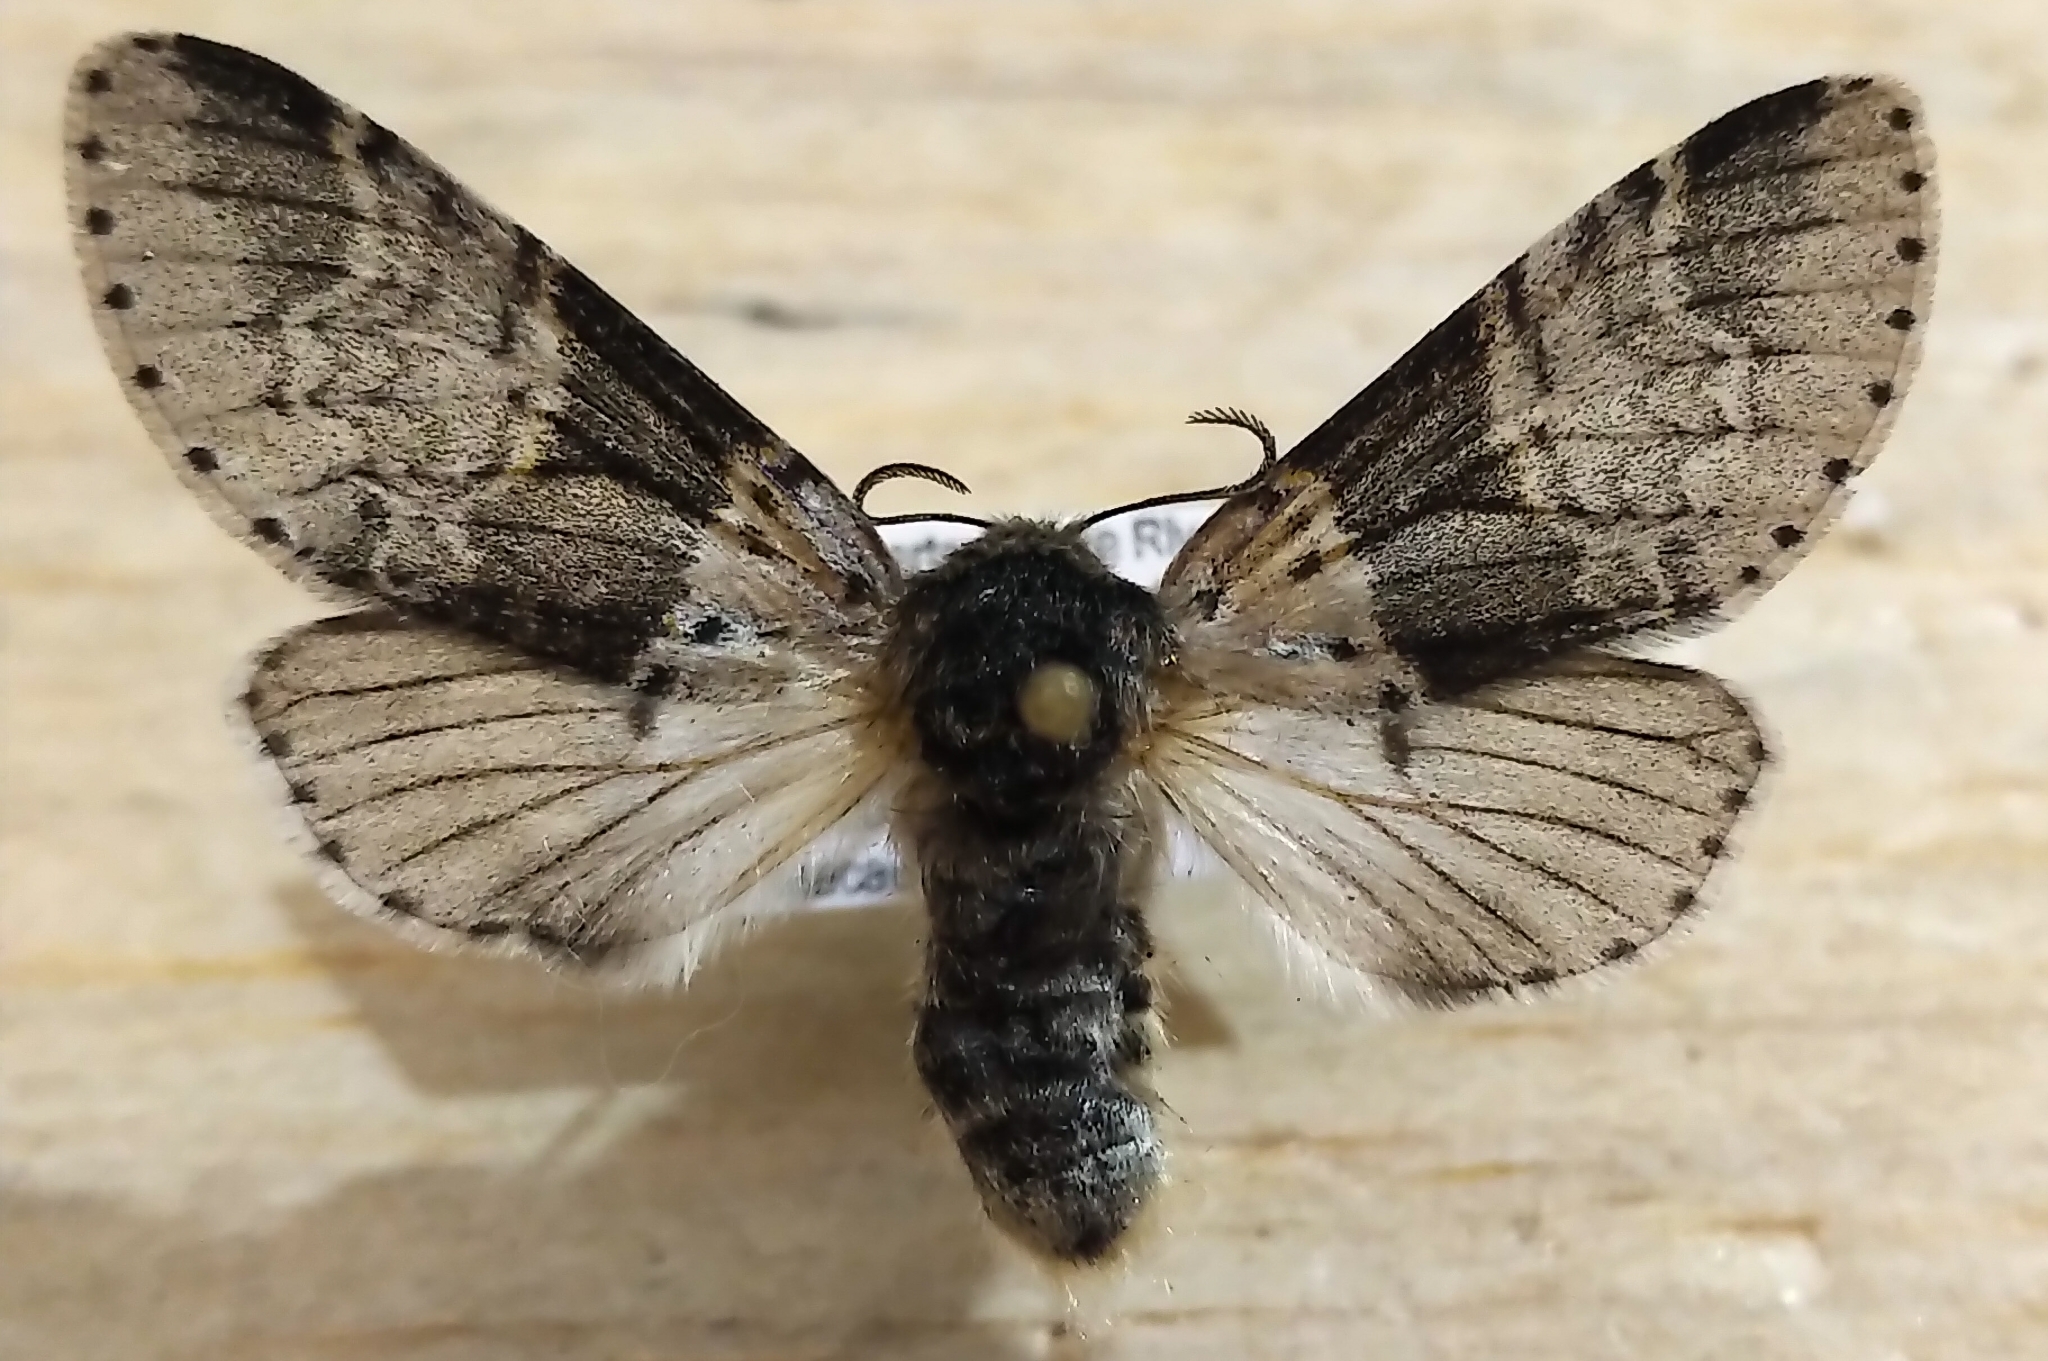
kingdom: Animalia
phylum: Arthropoda
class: Insecta
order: Lepidoptera
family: Notodontidae
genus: Furcula
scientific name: Furcula occidentalis
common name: Western furcula moth
